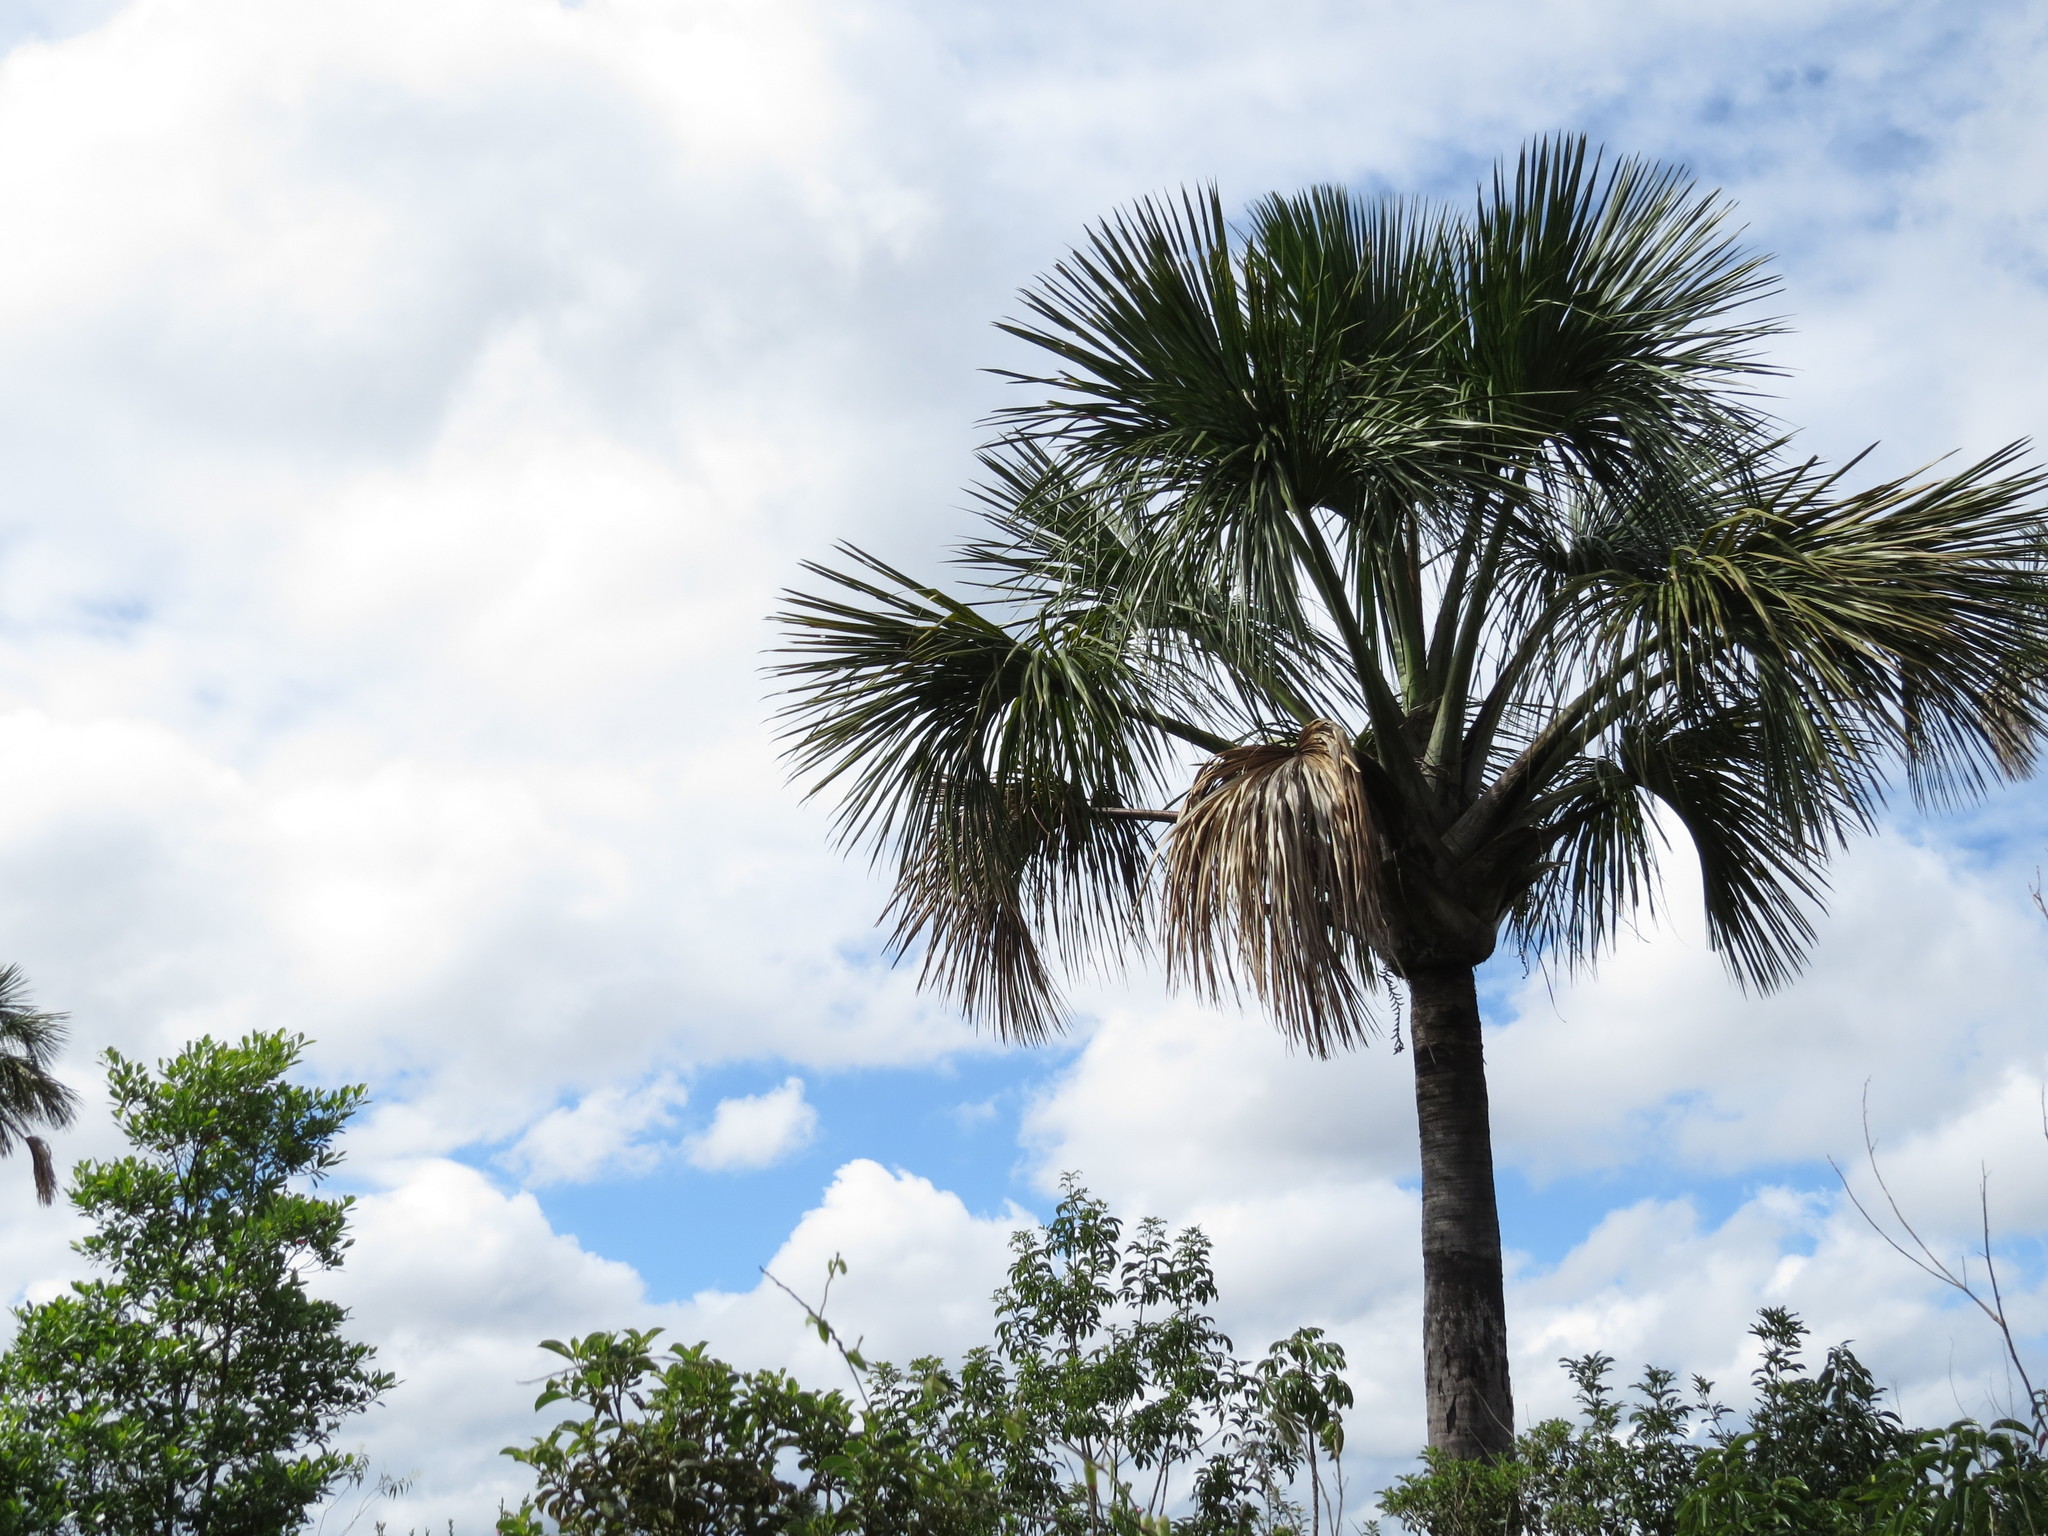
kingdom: Plantae
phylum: Tracheophyta
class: Liliopsida
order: Arecales
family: Arecaceae
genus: Mauritia
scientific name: Mauritia flexuosa
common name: Tree-of-life
